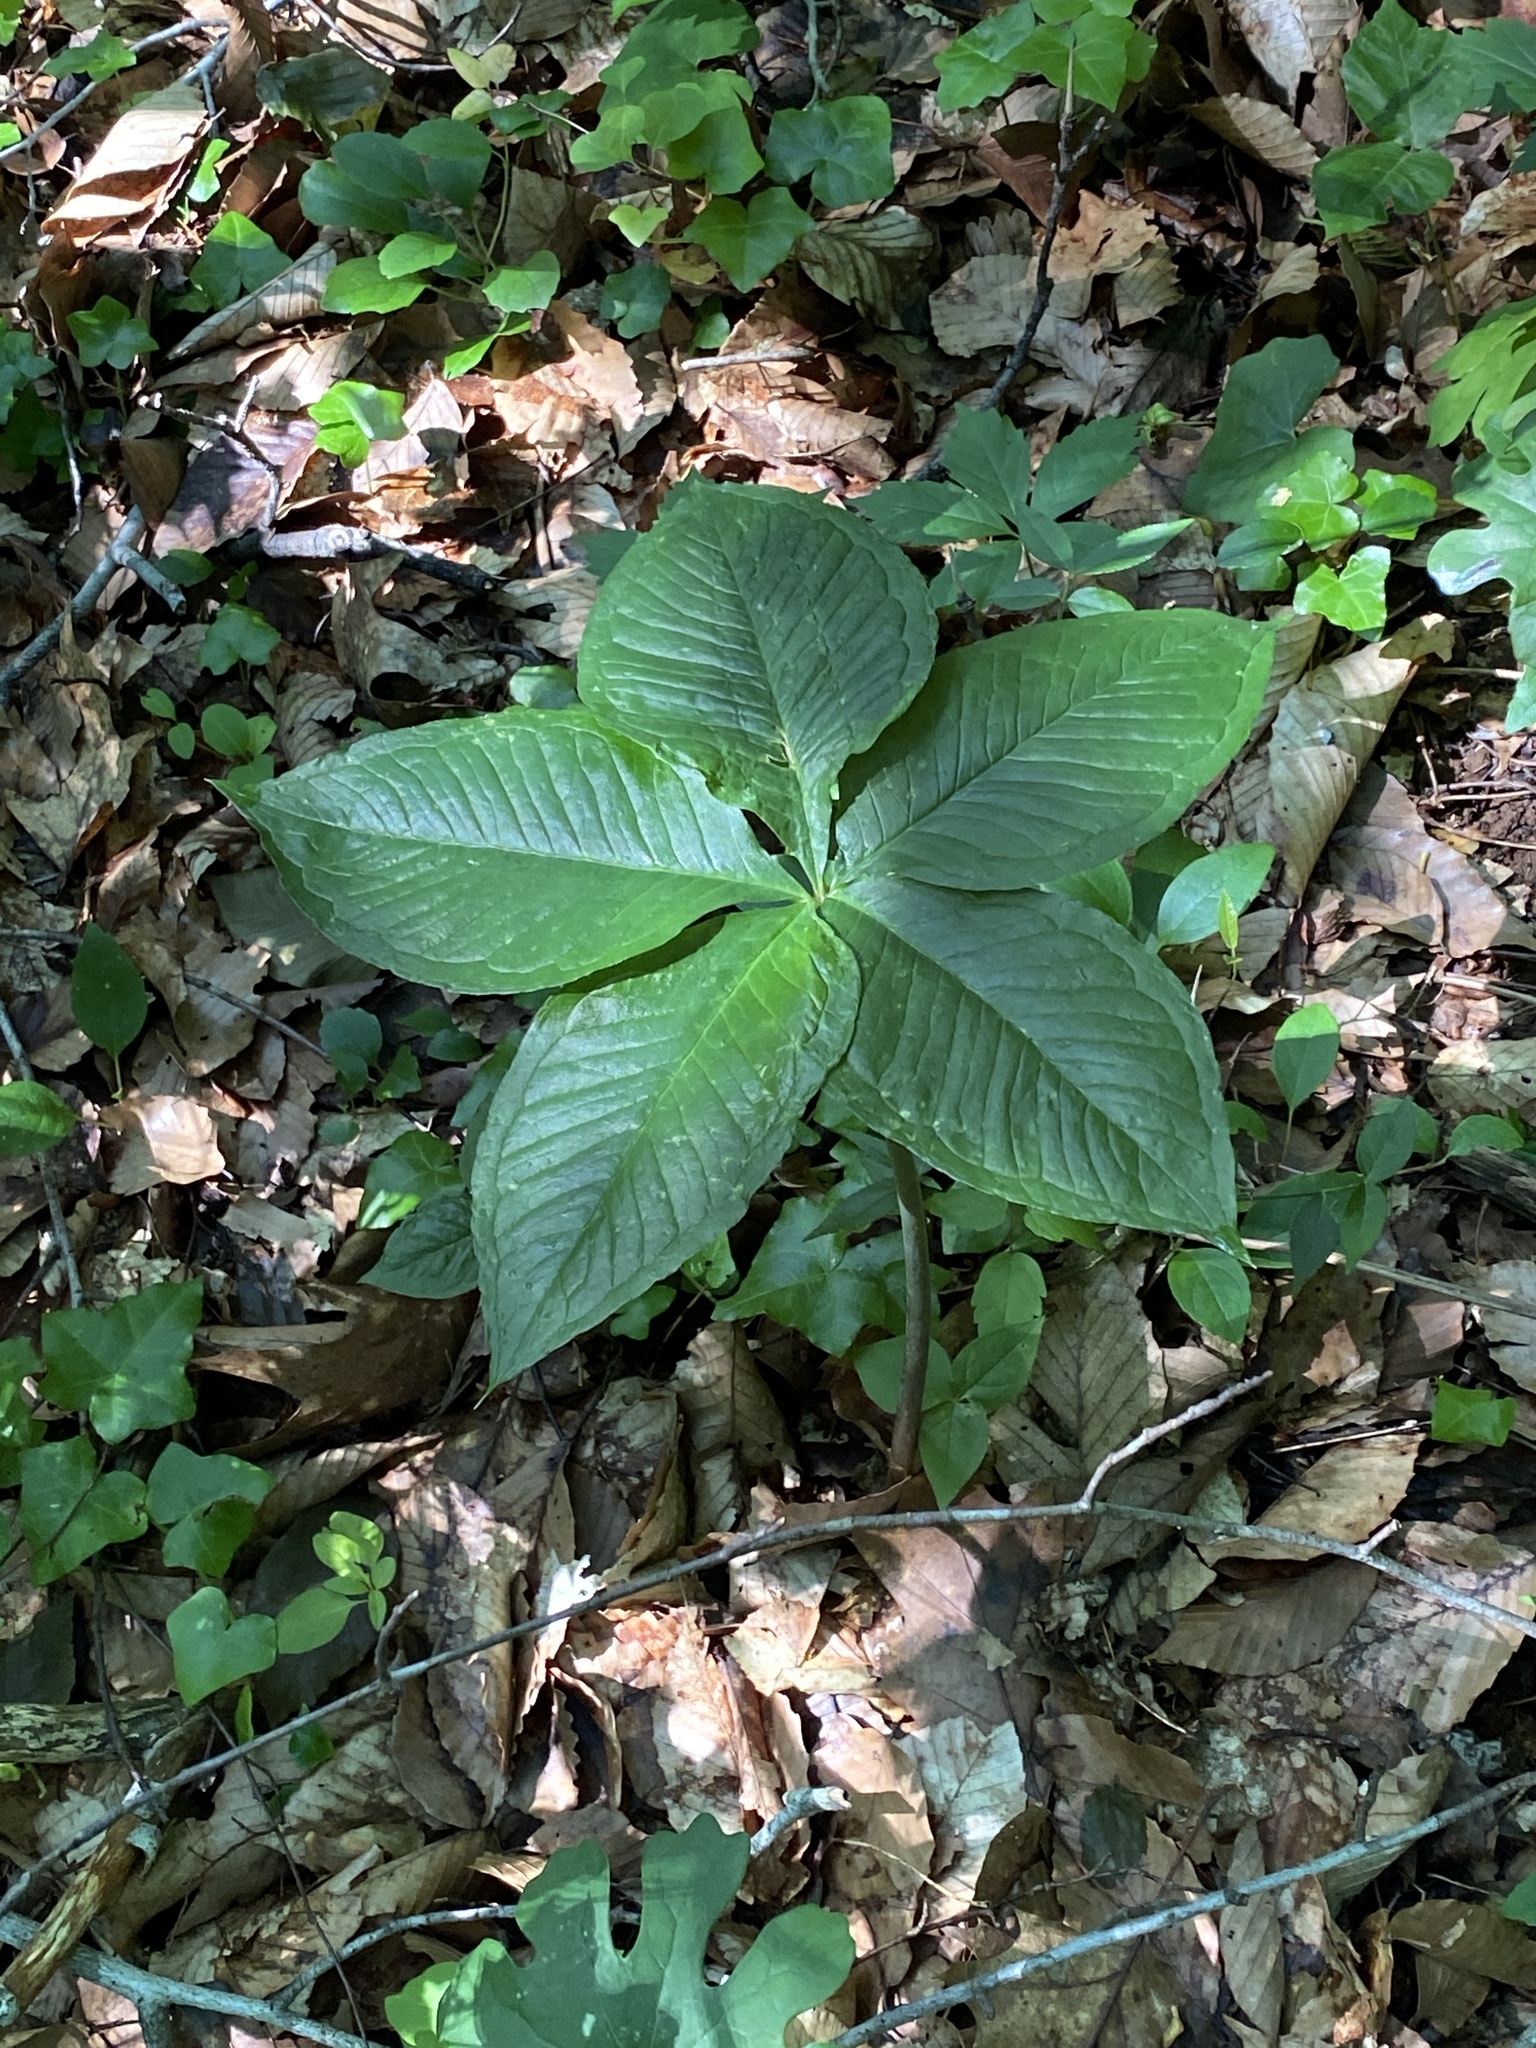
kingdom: Plantae
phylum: Tracheophyta
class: Liliopsida
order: Alismatales
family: Araceae
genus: Arisaema
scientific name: Arisaema quinatum
